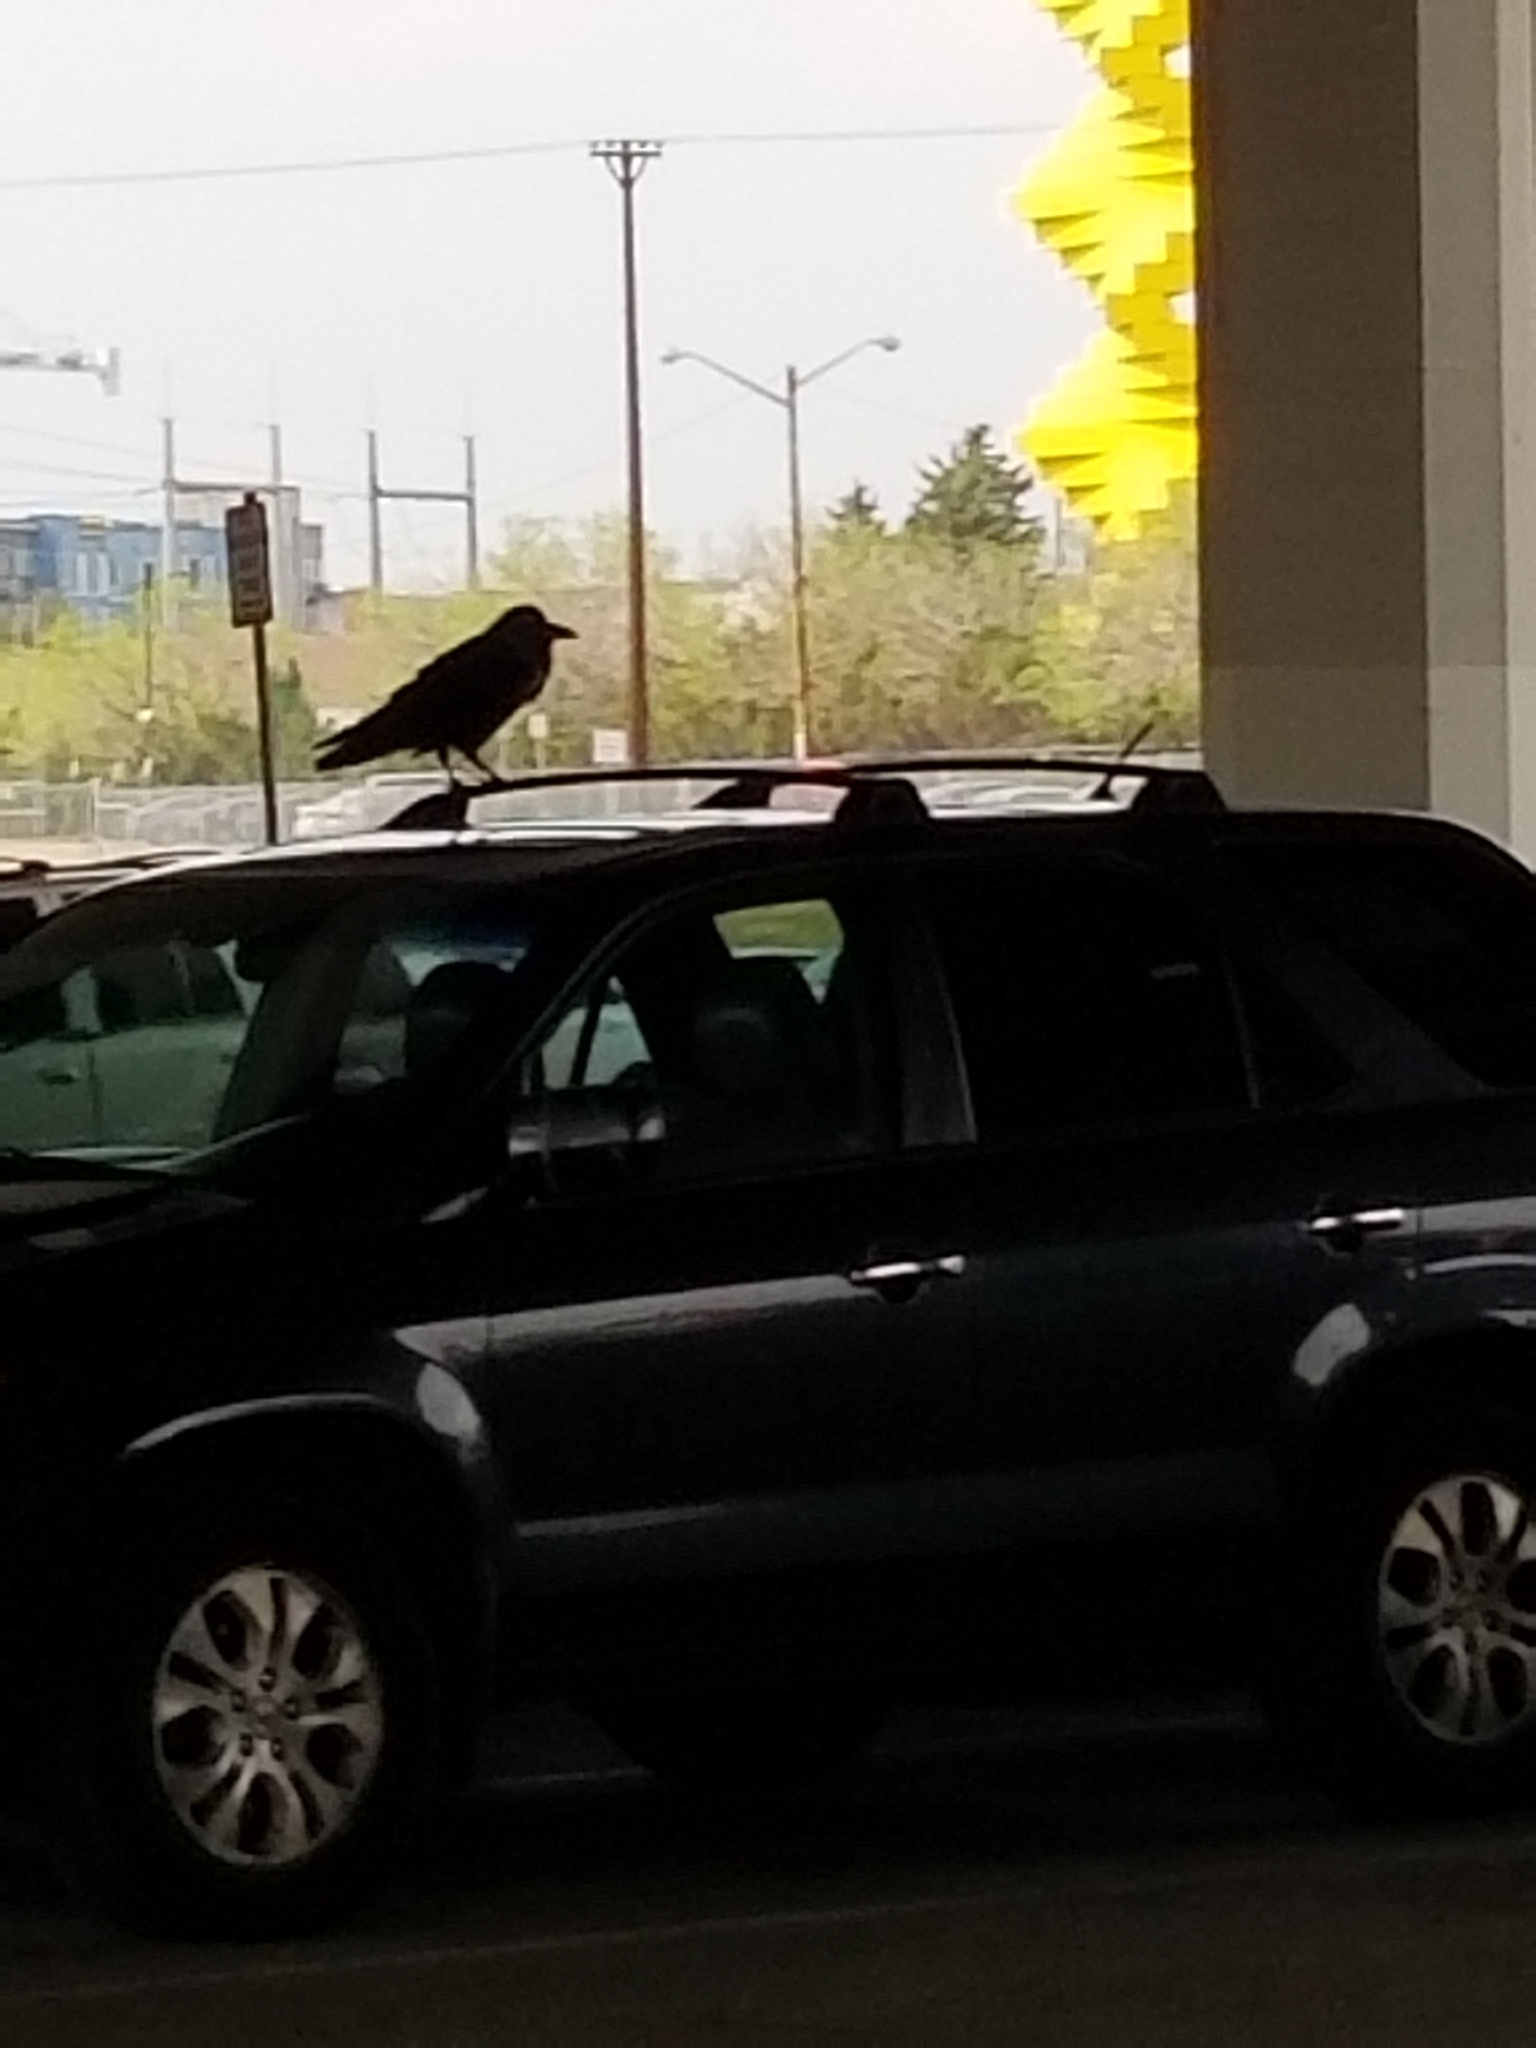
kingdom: Animalia
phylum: Chordata
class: Aves
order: Passeriformes
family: Corvidae
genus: Corvus
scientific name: Corvus corax
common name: Common raven
